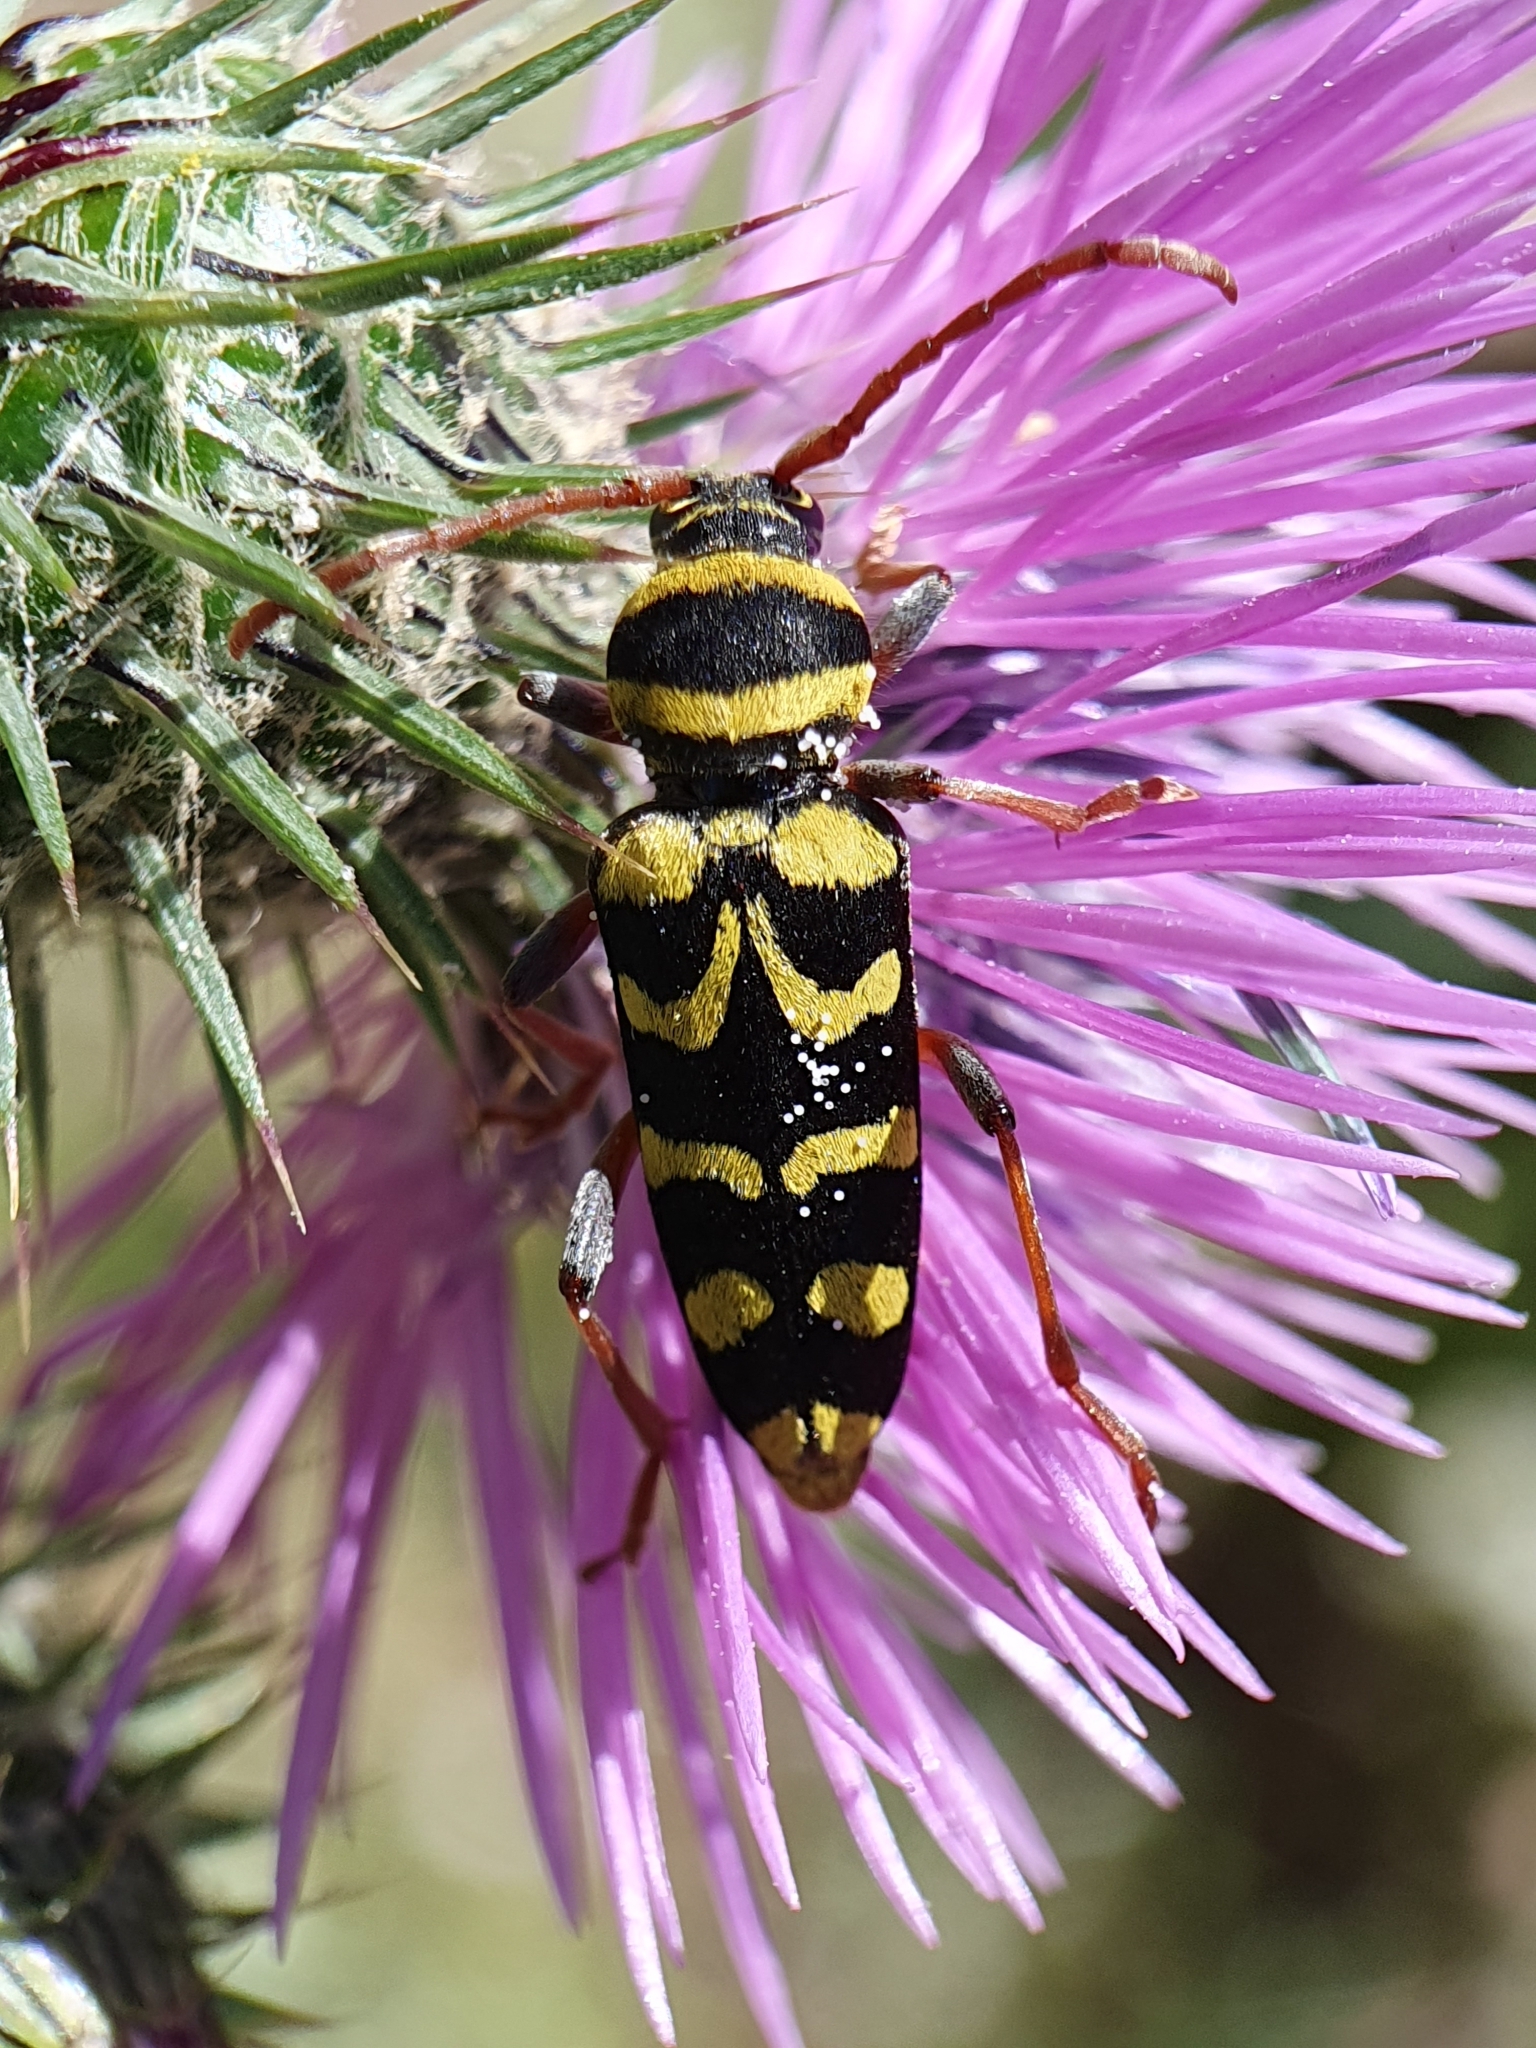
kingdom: Animalia
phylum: Arthropoda
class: Insecta
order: Coleoptera
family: Cerambycidae
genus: Neoplagionotus
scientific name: Neoplagionotus scalaris
